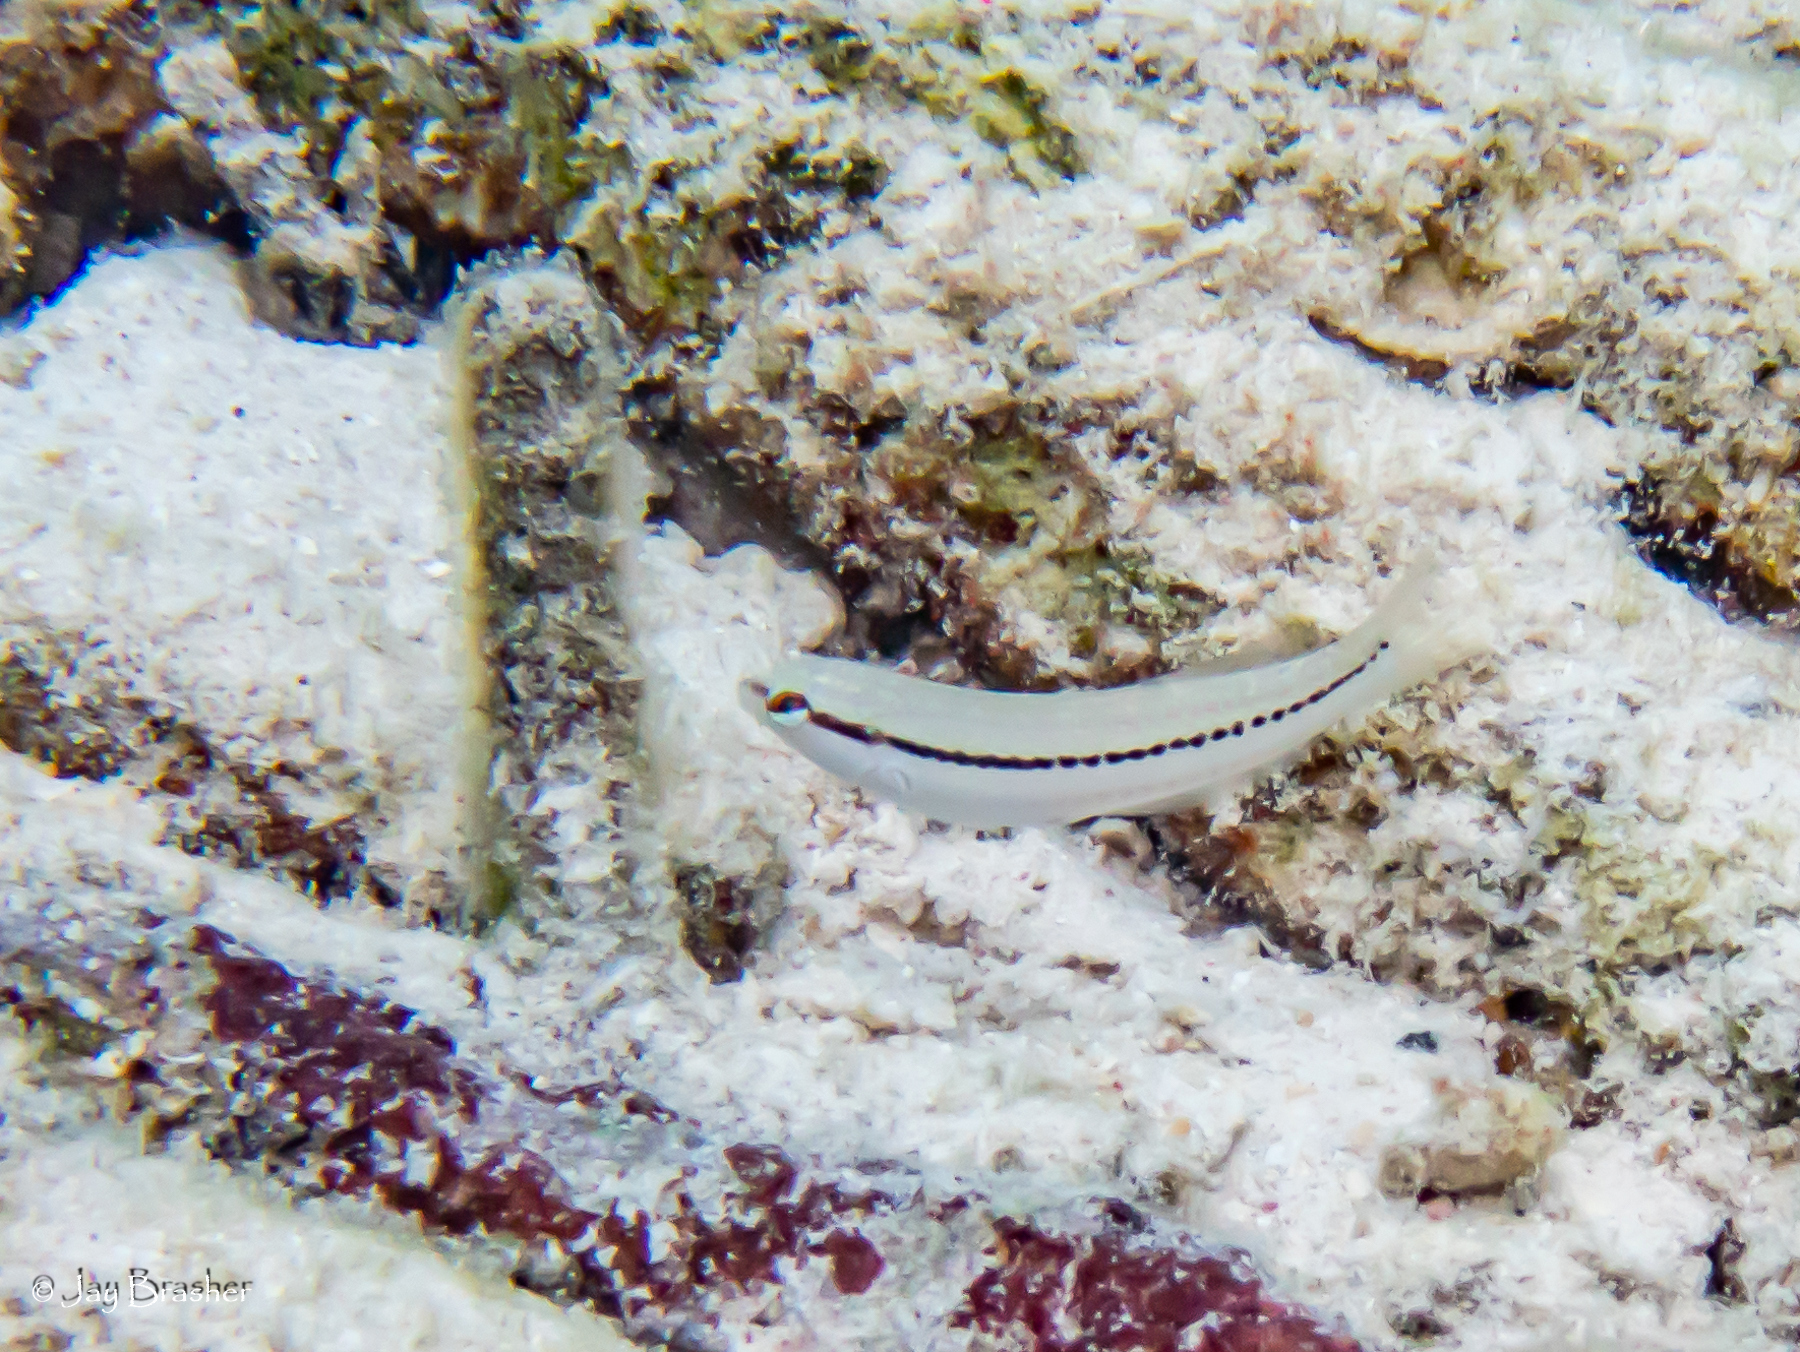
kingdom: Animalia
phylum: Chordata
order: Perciformes
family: Labridae
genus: Halichoeres
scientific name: Halichoeres bivittatus
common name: Slippery dick
